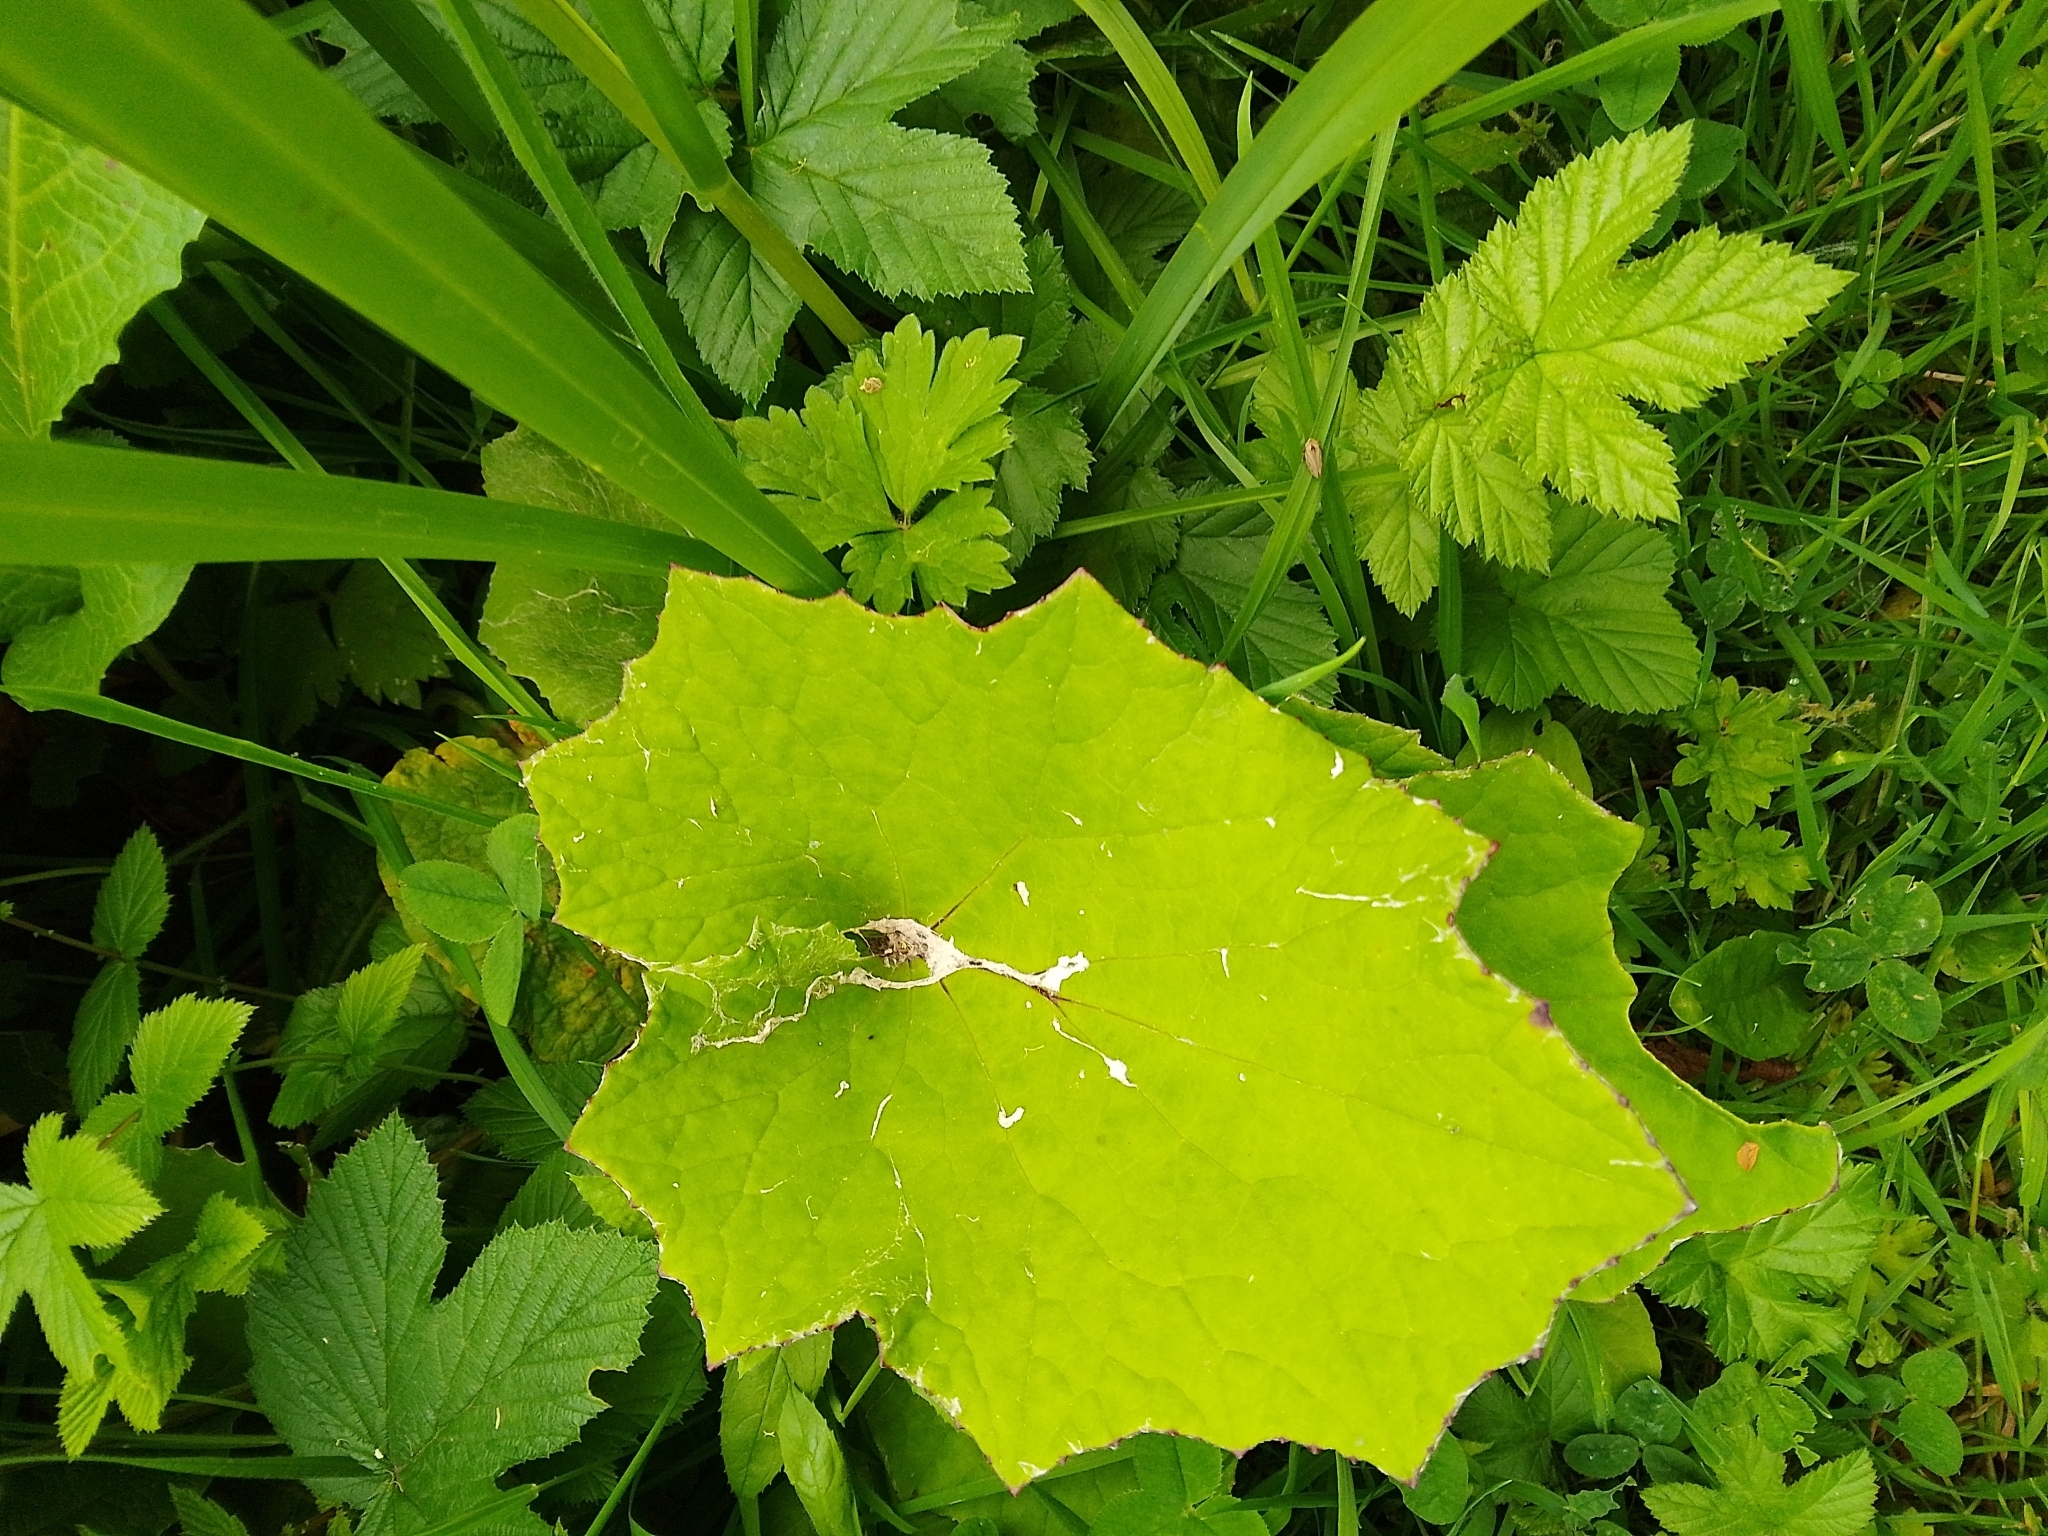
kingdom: Plantae
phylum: Tracheophyta
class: Magnoliopsida
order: Asterales
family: Asteraceae
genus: Tussilago
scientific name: Tussilago farfara
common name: Coltsfoot
